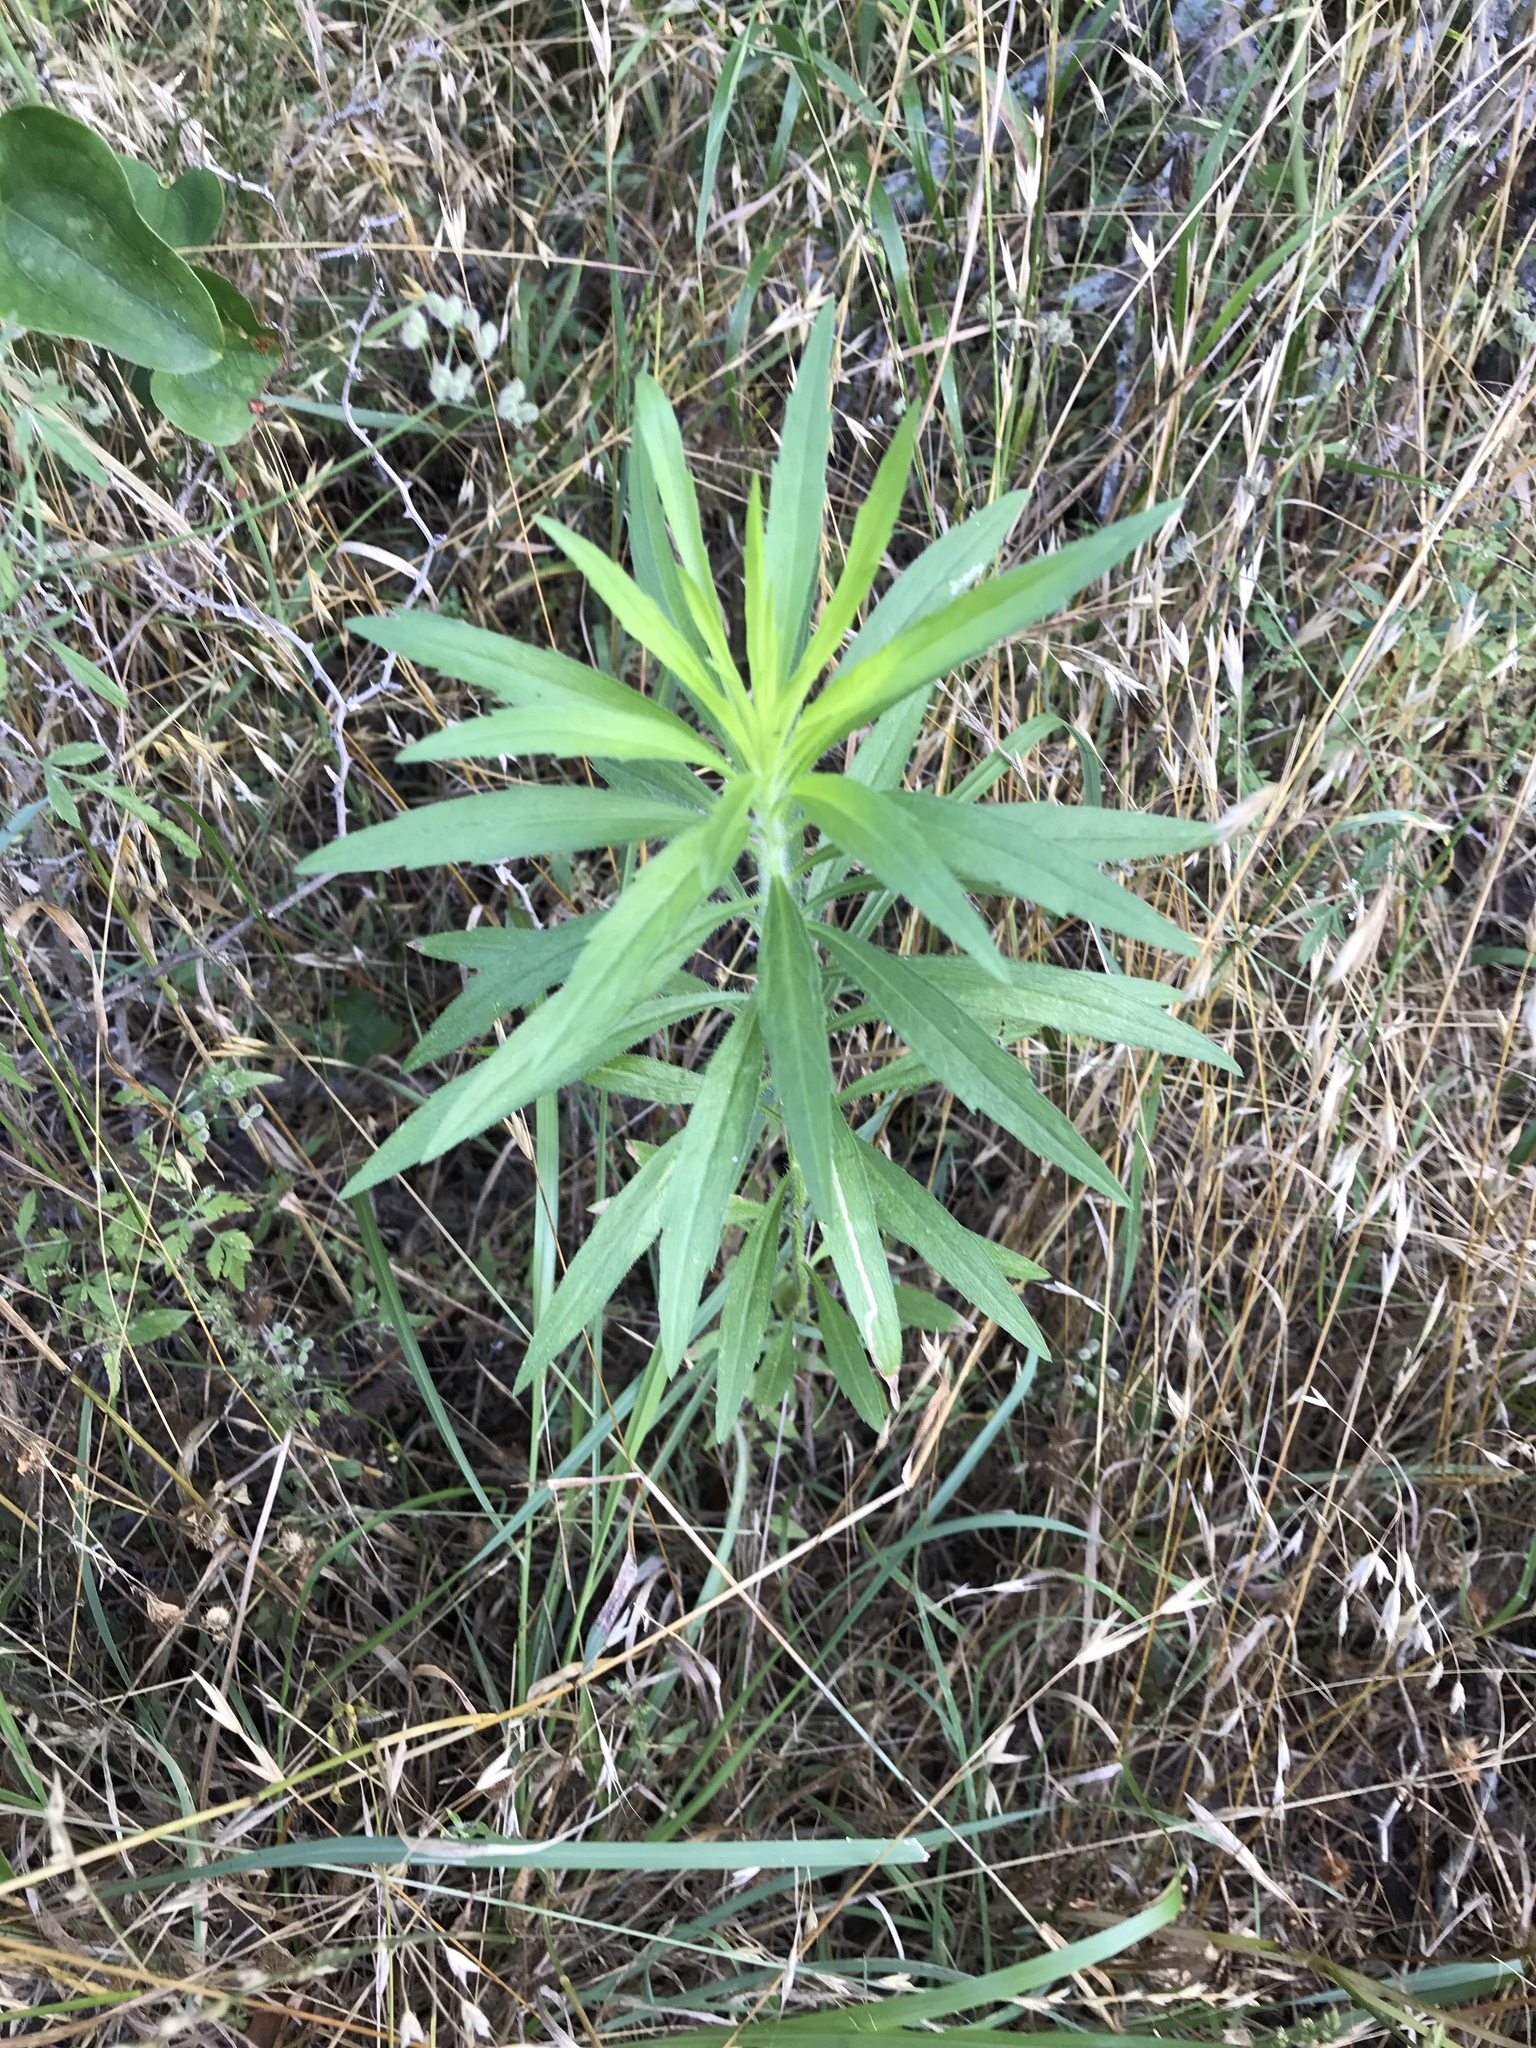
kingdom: Plantae
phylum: Tracheophyta
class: Magnoliopsida
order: Asterales
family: Asteraceae
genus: Erigeron
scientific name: Erigeron canadensis
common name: Canadian fleabane
